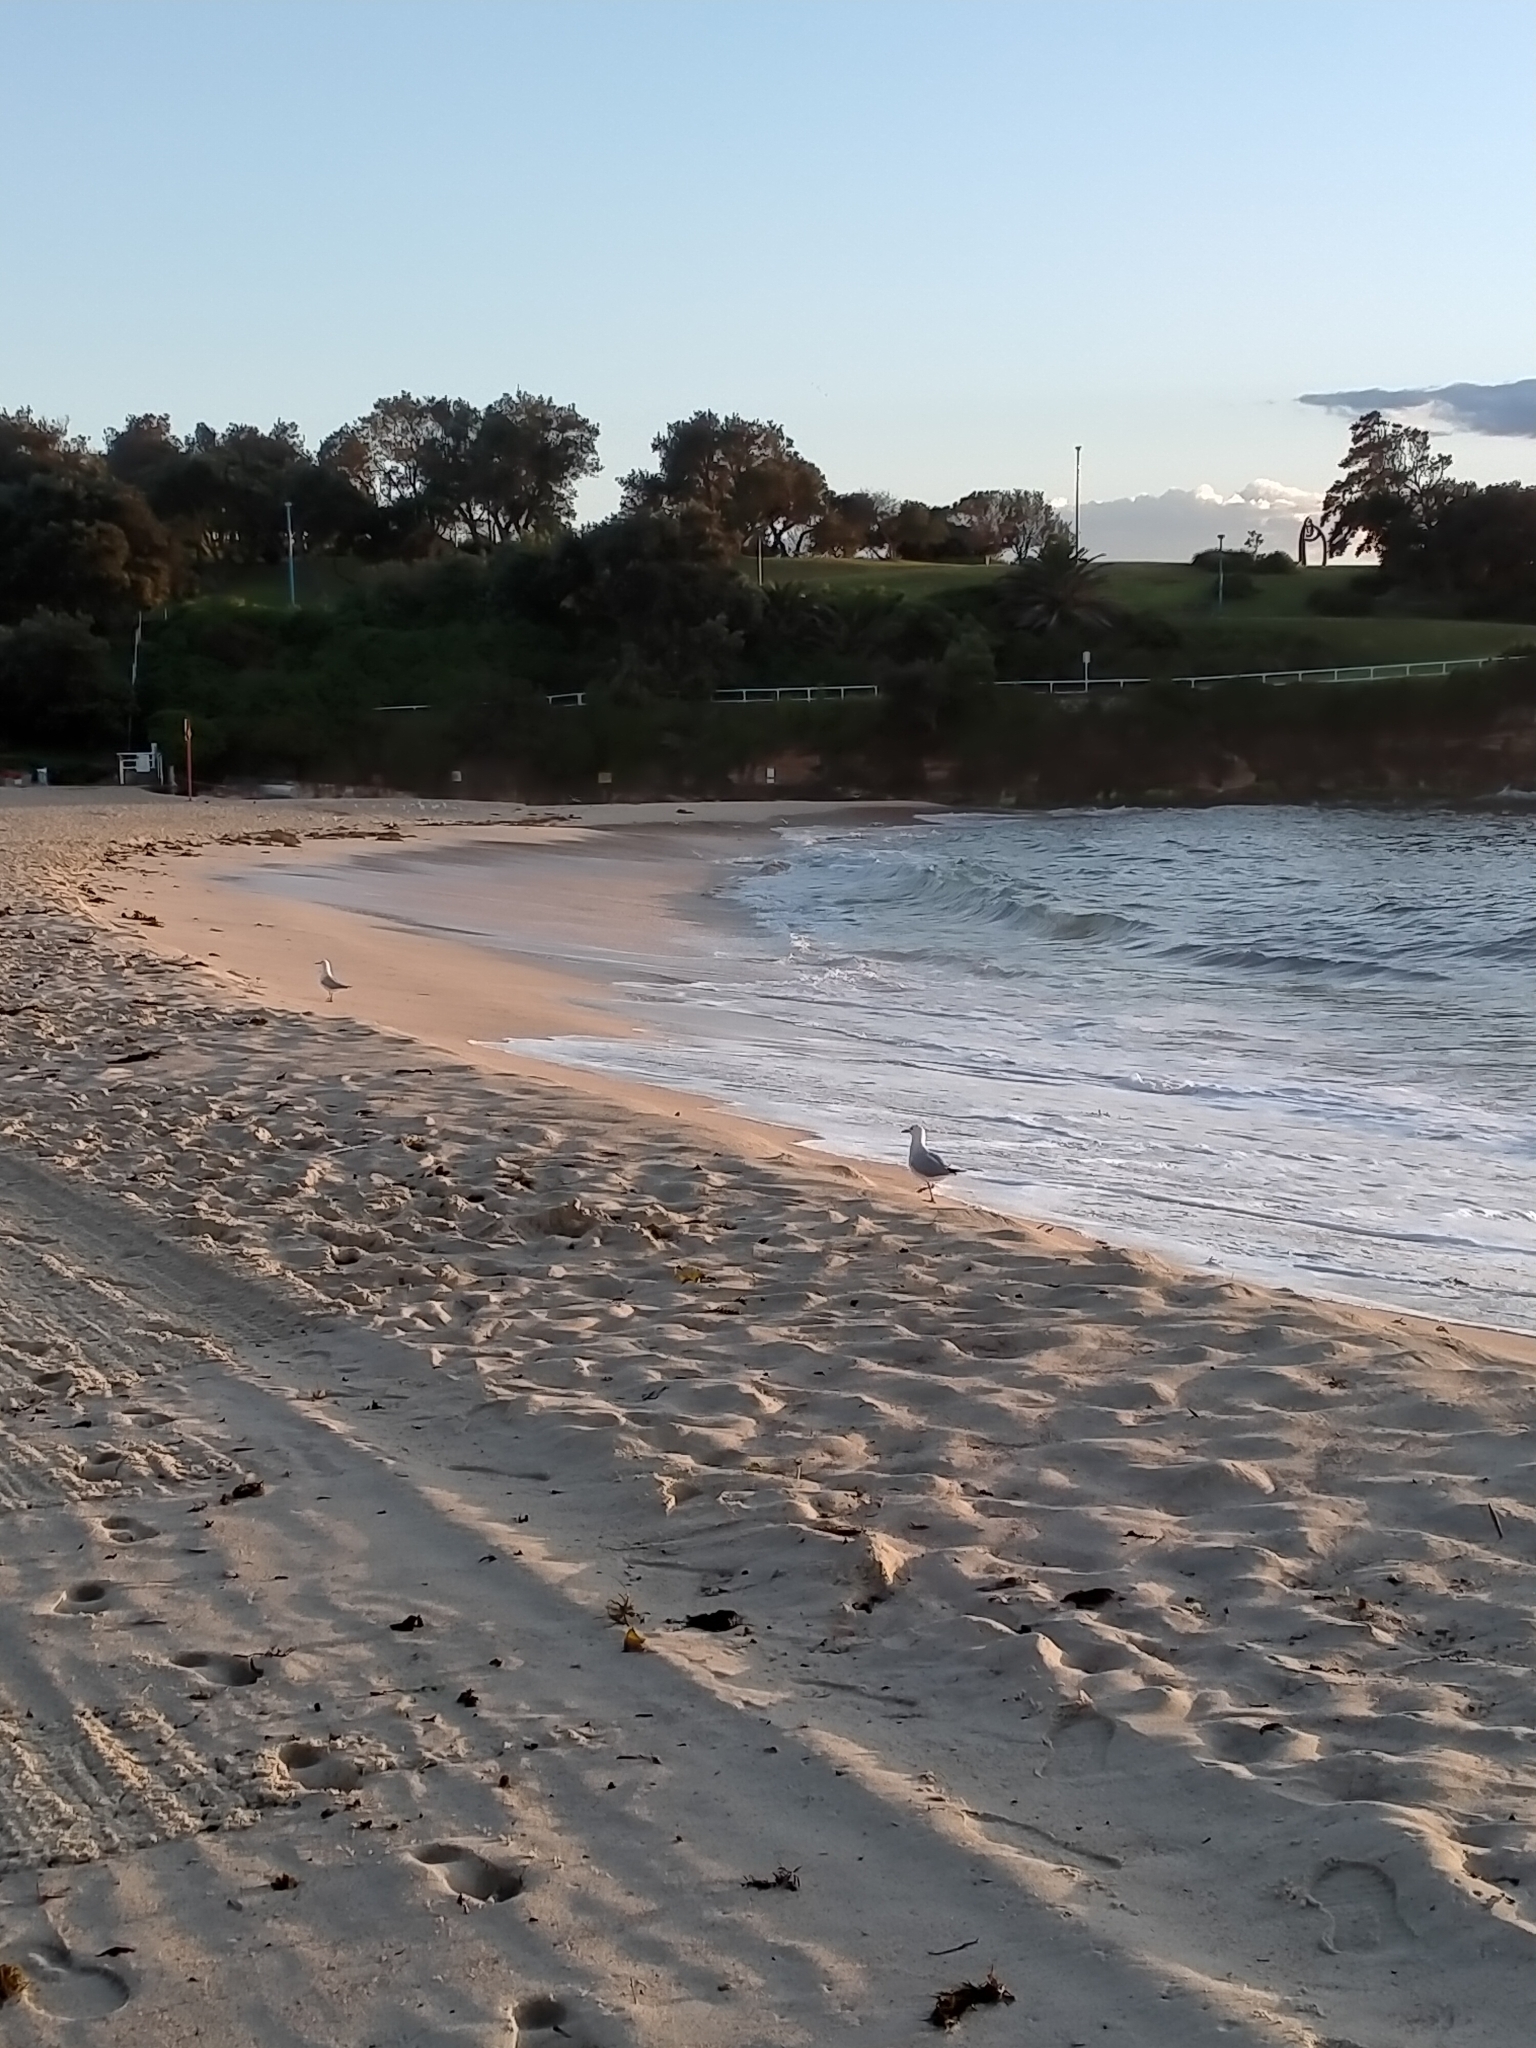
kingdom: Animalia
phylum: Chordata
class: Aves
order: Charadriiformes
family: Laridae
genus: Chroicocephalus
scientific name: Chroicocephalus novaehollandiae
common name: Silver gull
